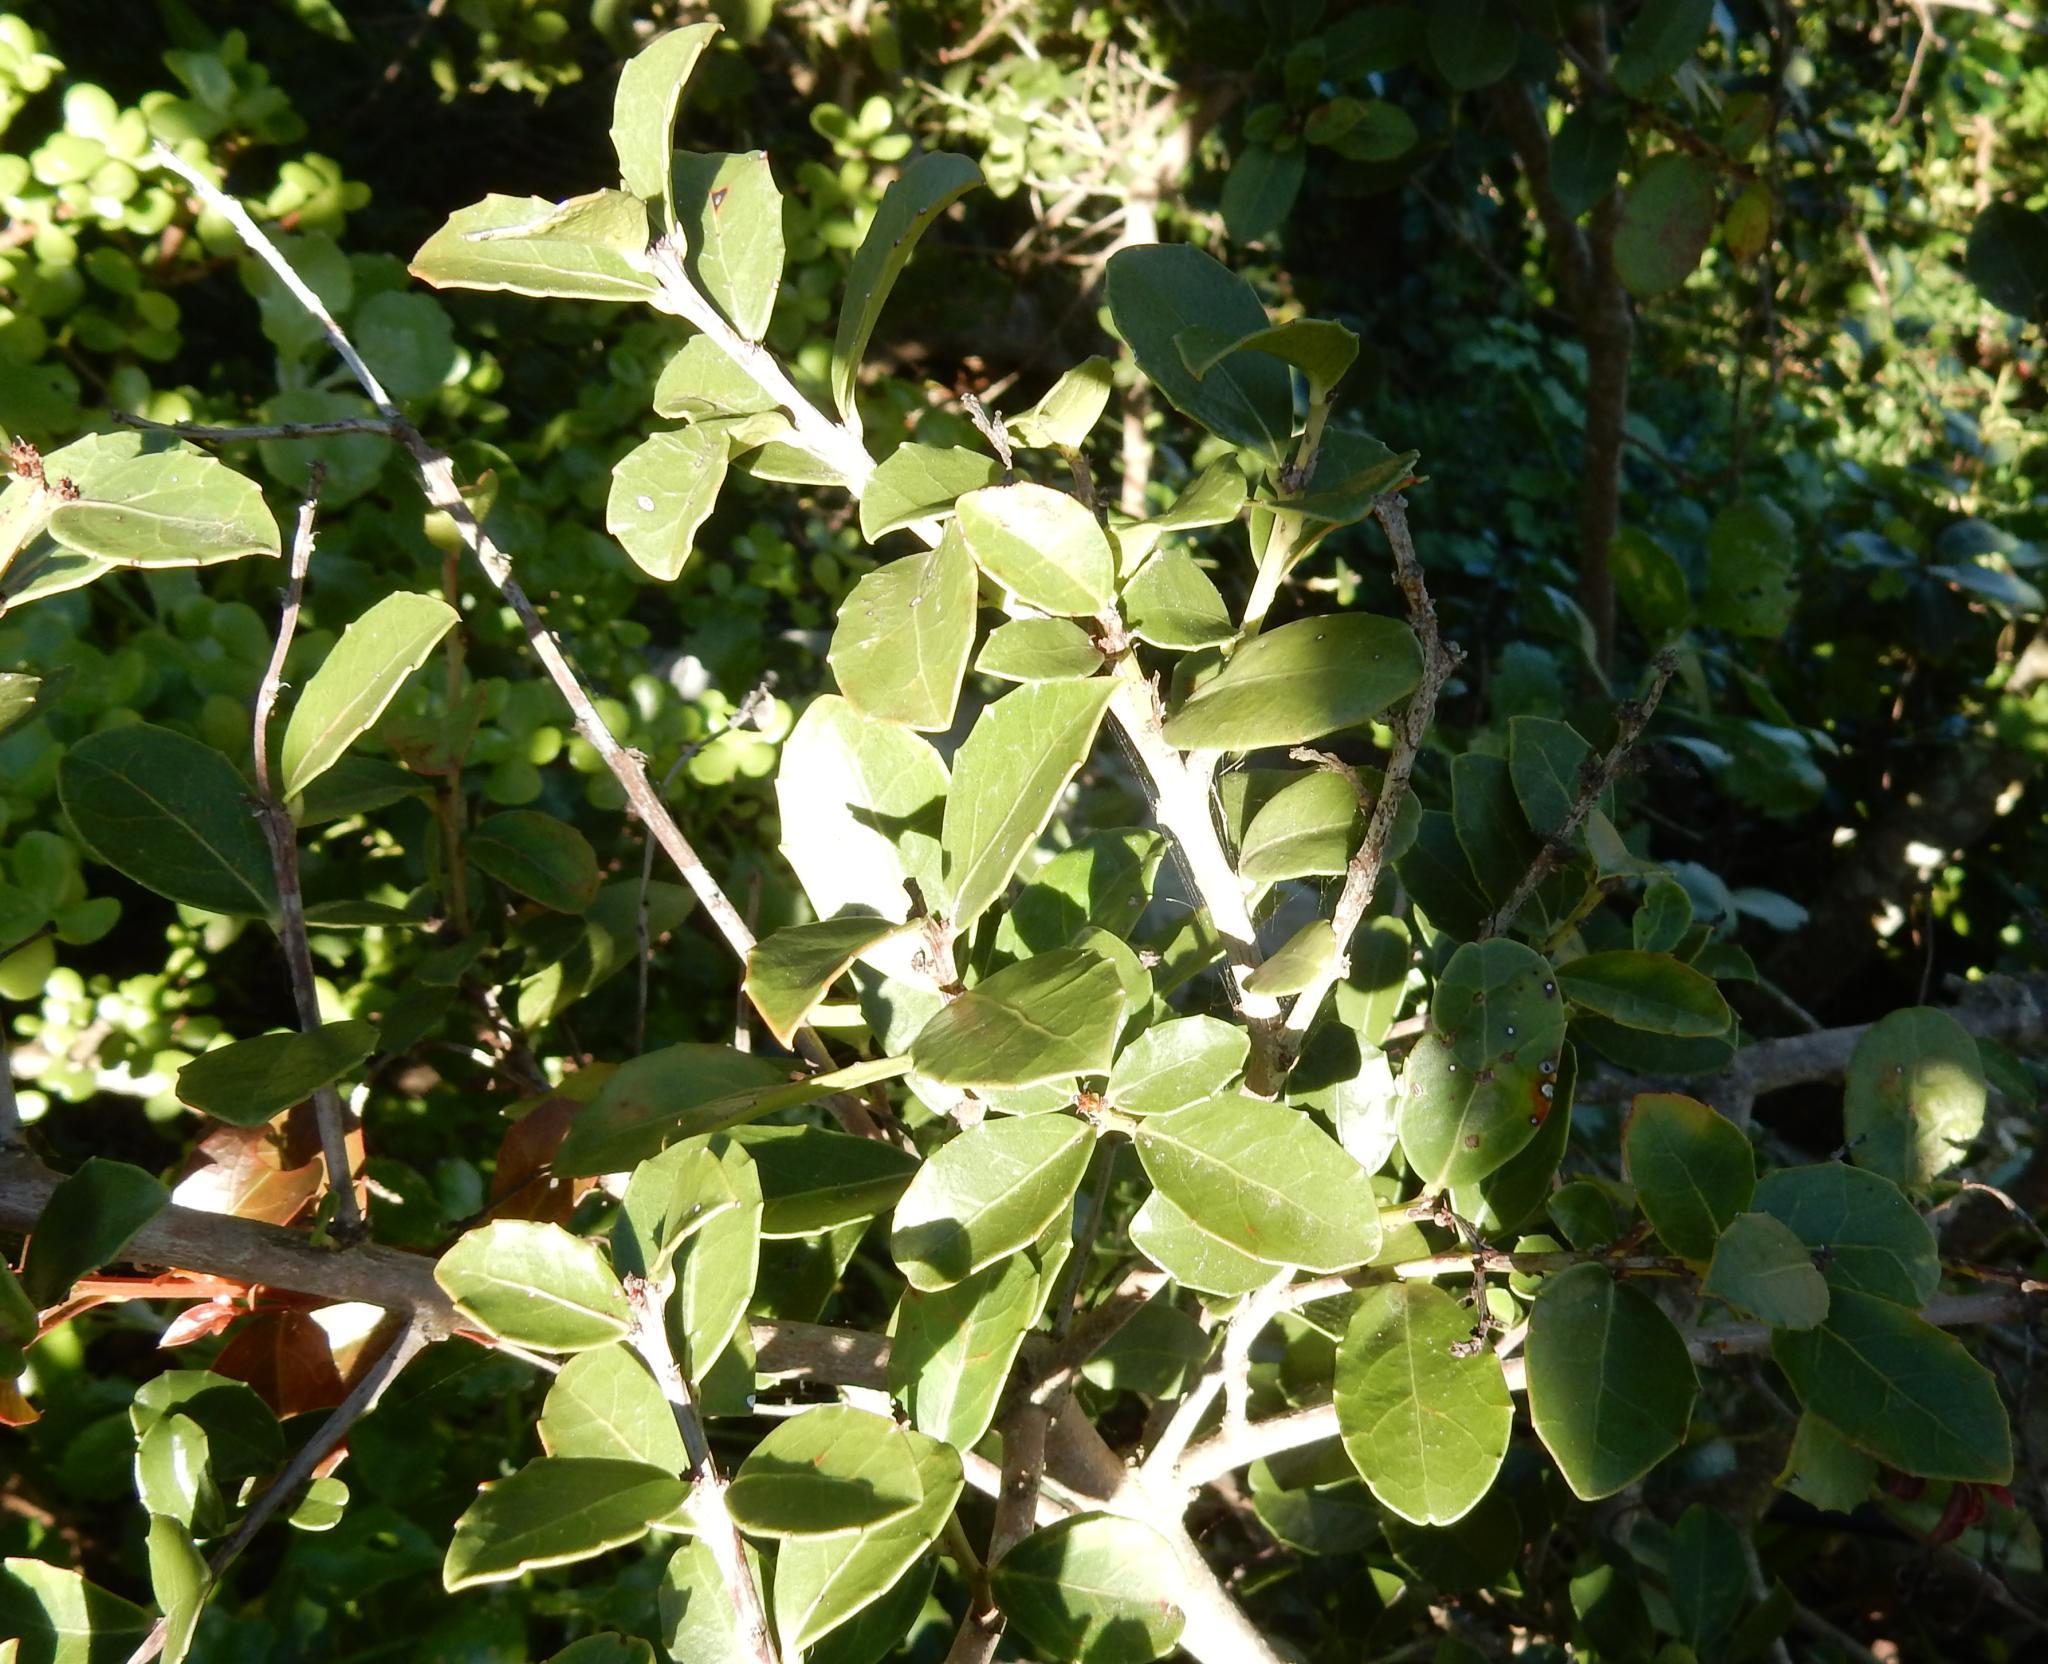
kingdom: Plantae
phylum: Tracheophyta
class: Magnoliopsida
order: Celastrales
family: Celastraceae
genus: Gymnosporia
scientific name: Gymnosporia procumbens
